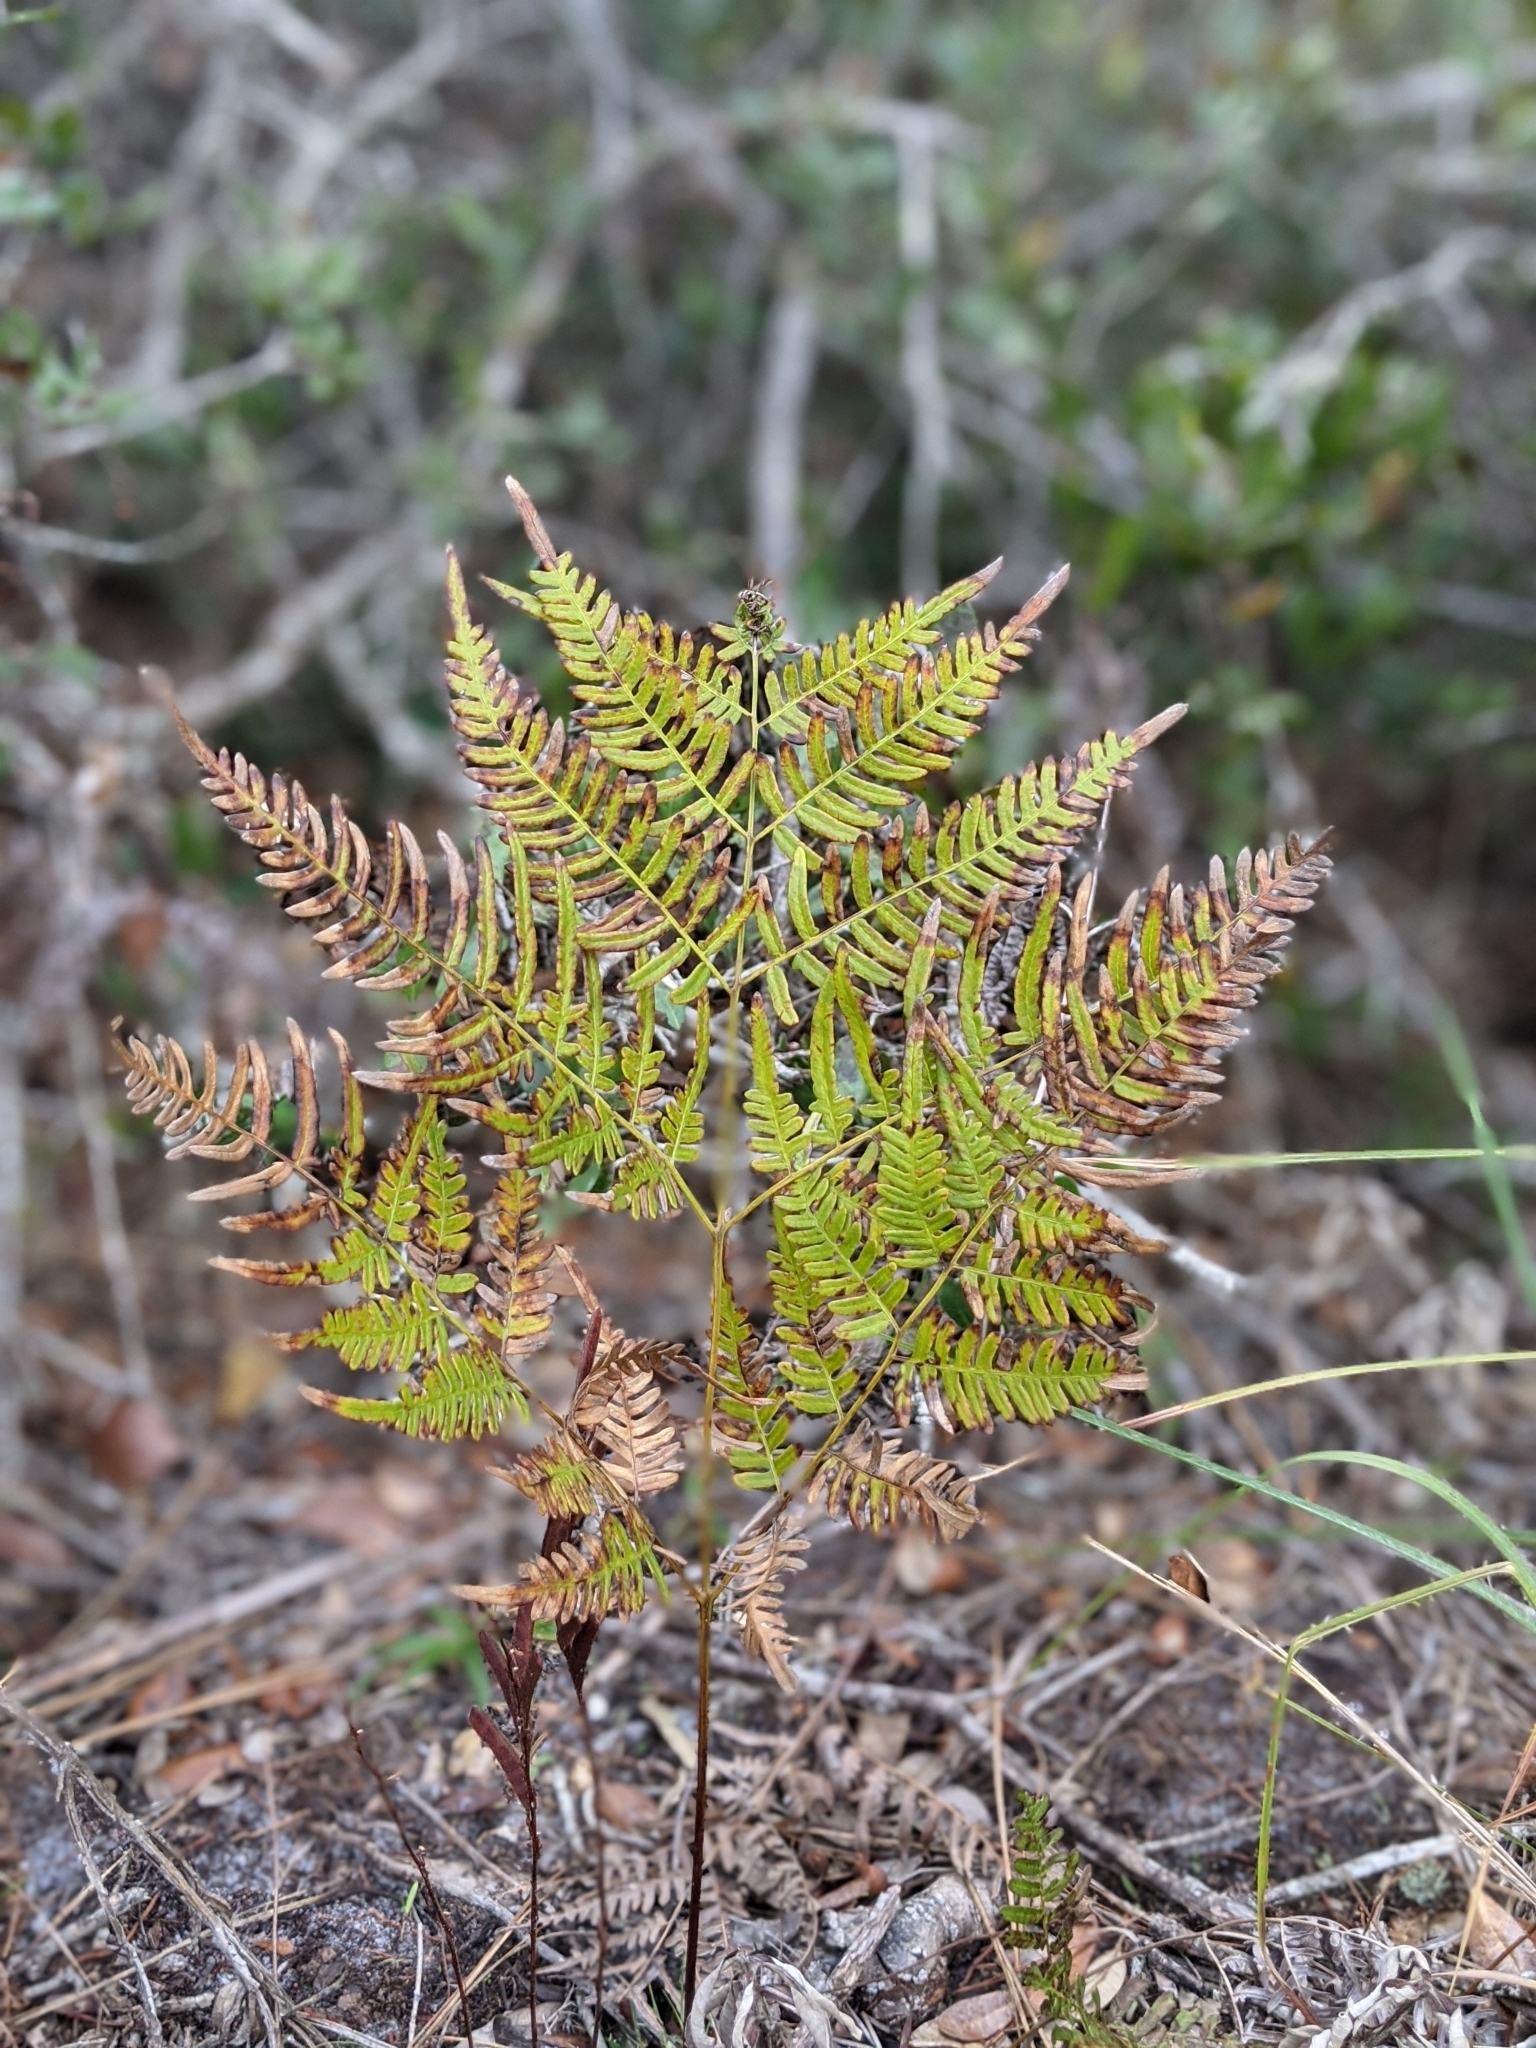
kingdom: Plantae
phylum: Tracheophyta
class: Polypodiopsida
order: Polypodiales
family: Dennstaedtiaceae
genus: Pteridium
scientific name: Pteridium
